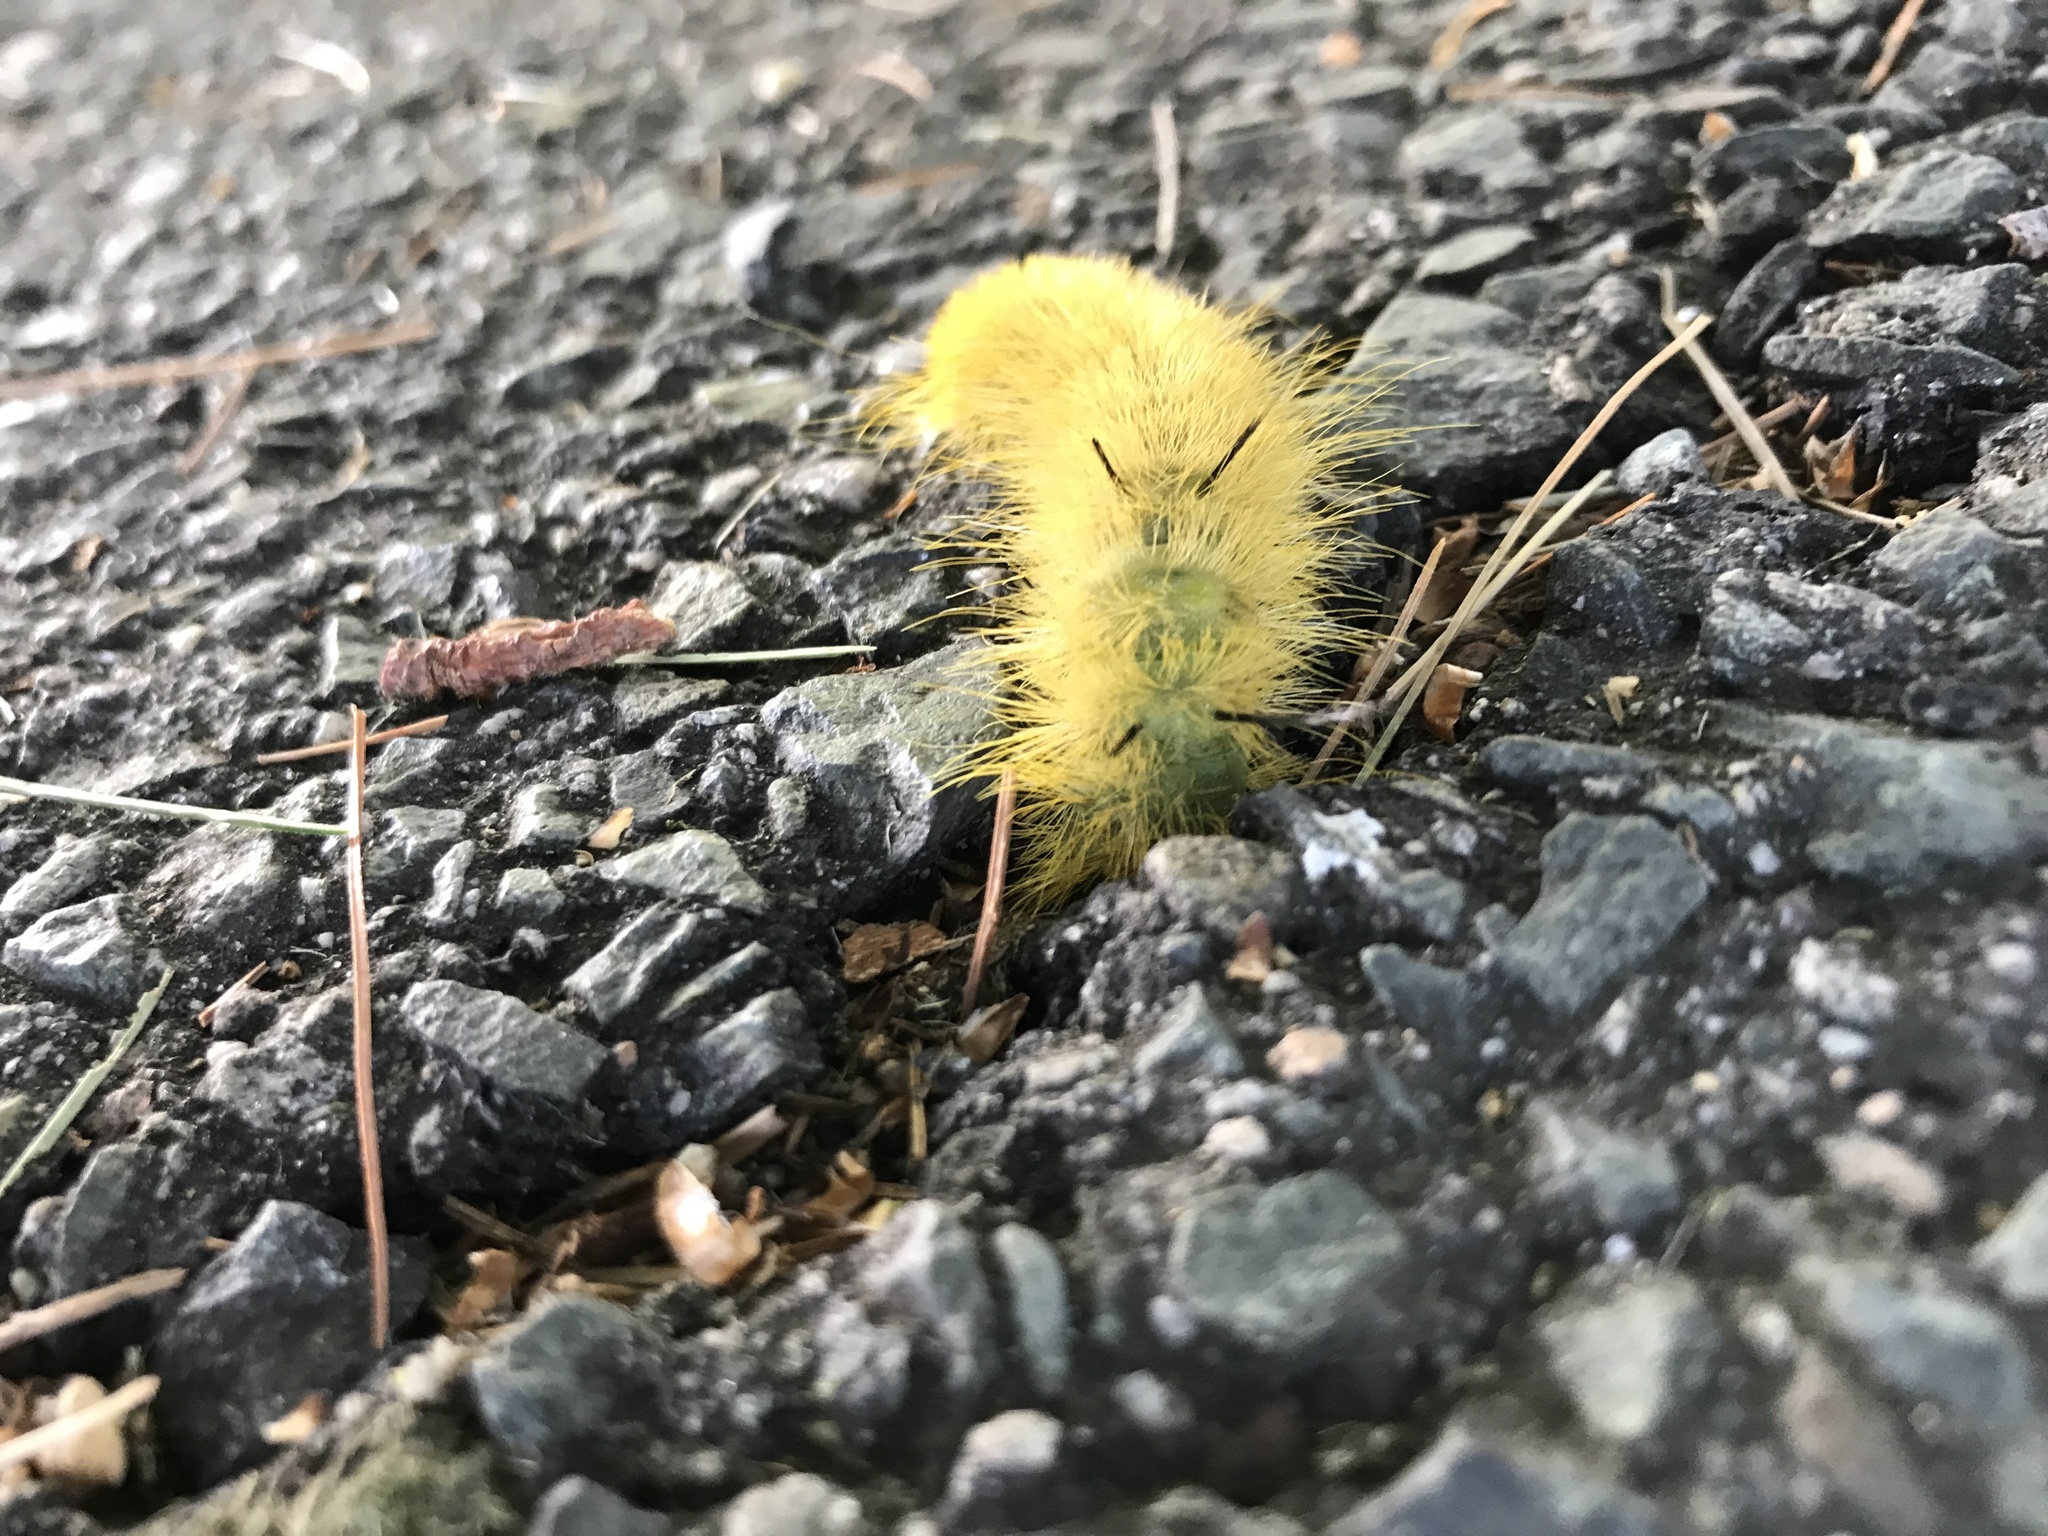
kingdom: Animalia
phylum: Arthropoda
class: Insecta
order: Lepidoptera
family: Noctuidae
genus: Acronicta
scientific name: Acronicta americana
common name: American dagger
